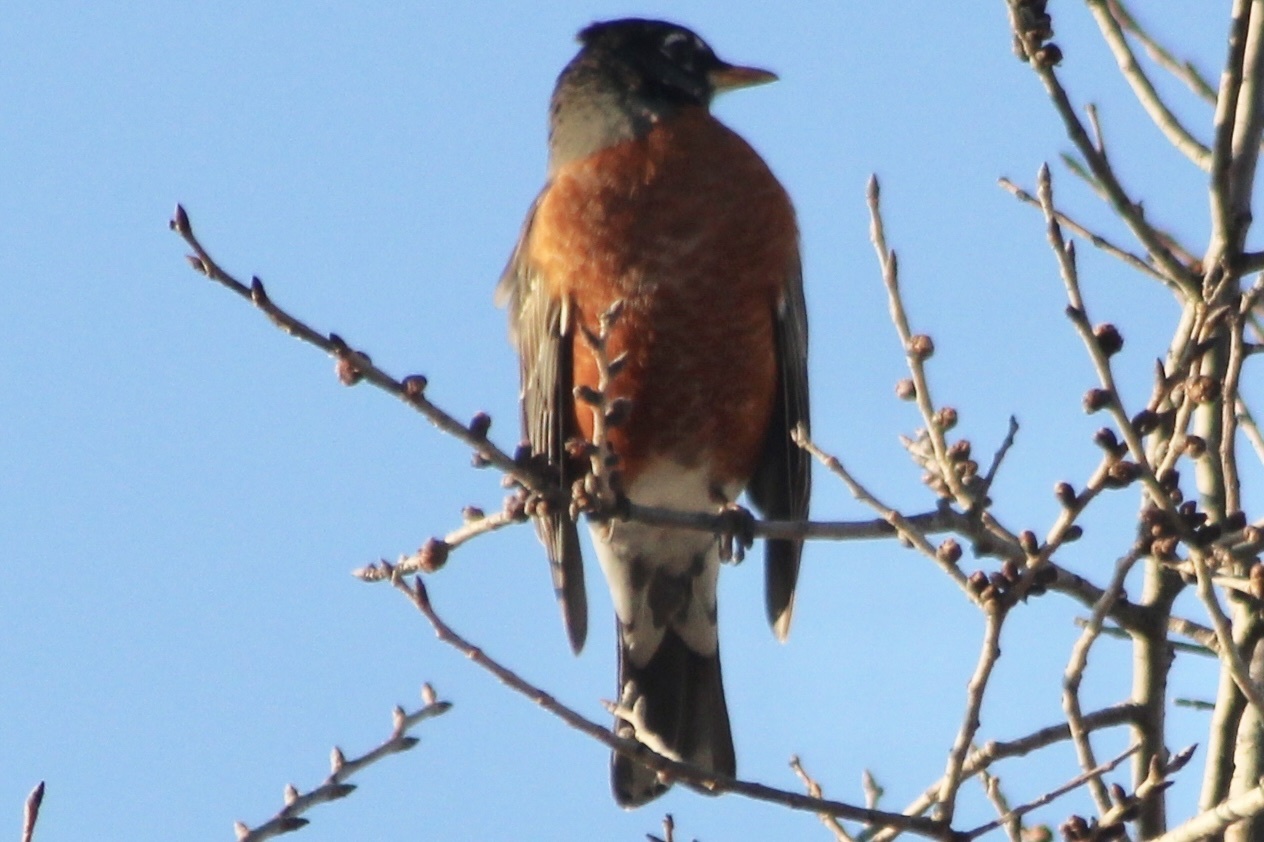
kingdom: Animalia
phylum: Chordata
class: Aves
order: Passeriformes
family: Turdidae
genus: Turdus
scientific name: Turdus migratorius
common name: American robin
